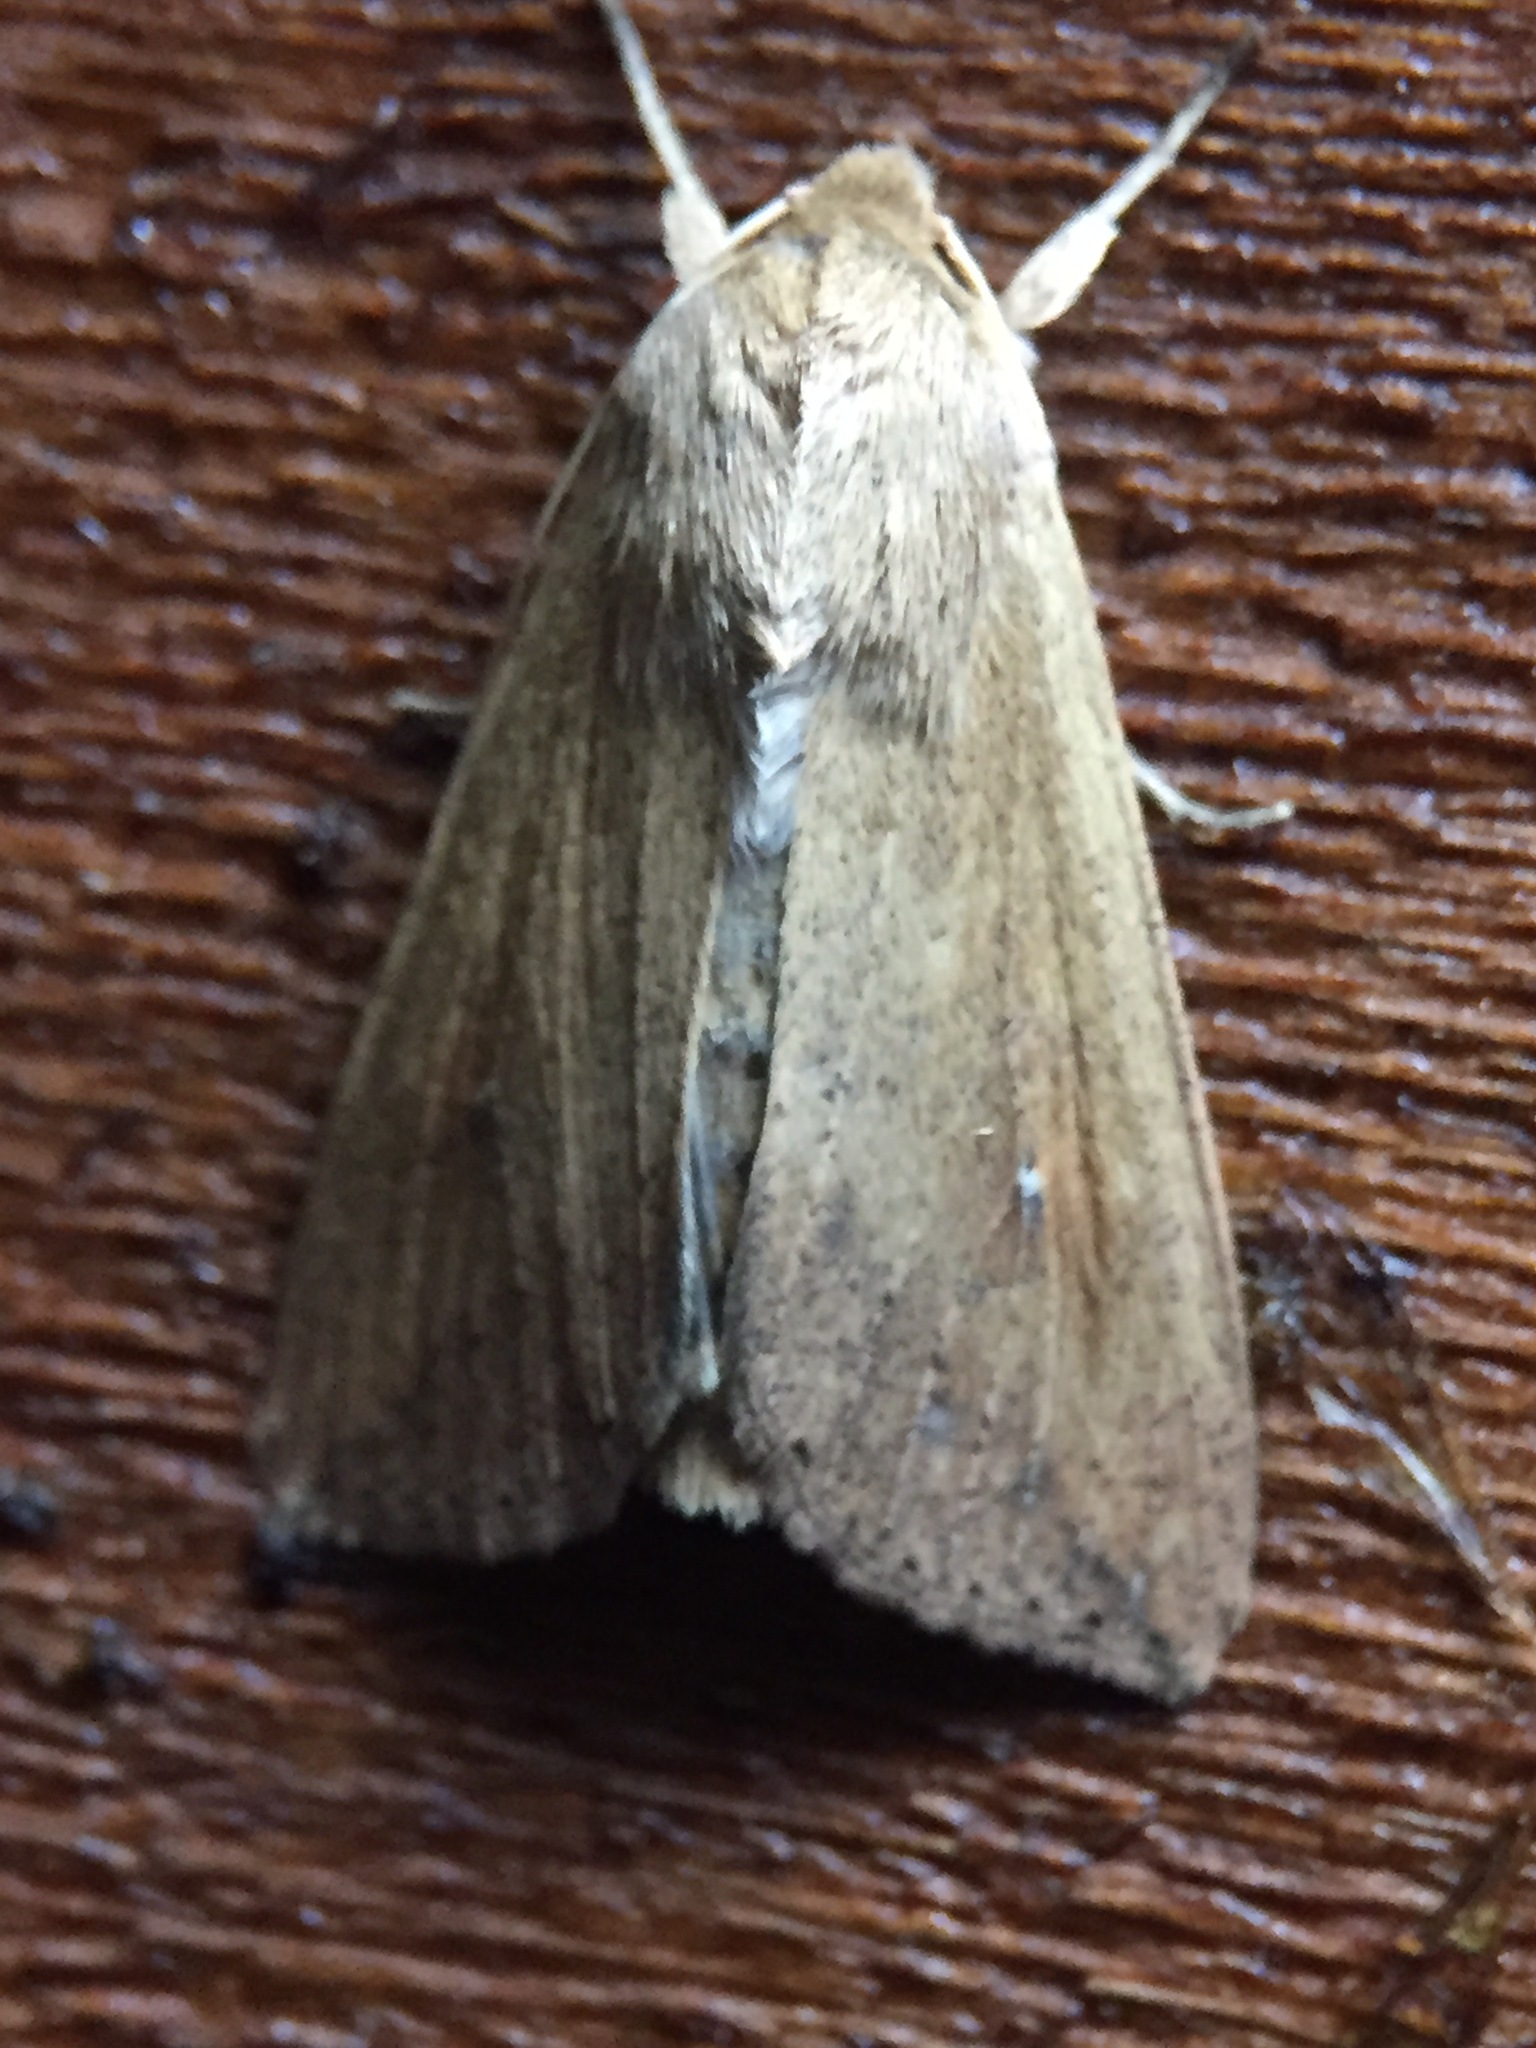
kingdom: Animalia
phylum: Arthropoda
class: Insecta
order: Lepidoptera
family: Noctuidae
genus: Mythimna
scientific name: Mythimna separata
